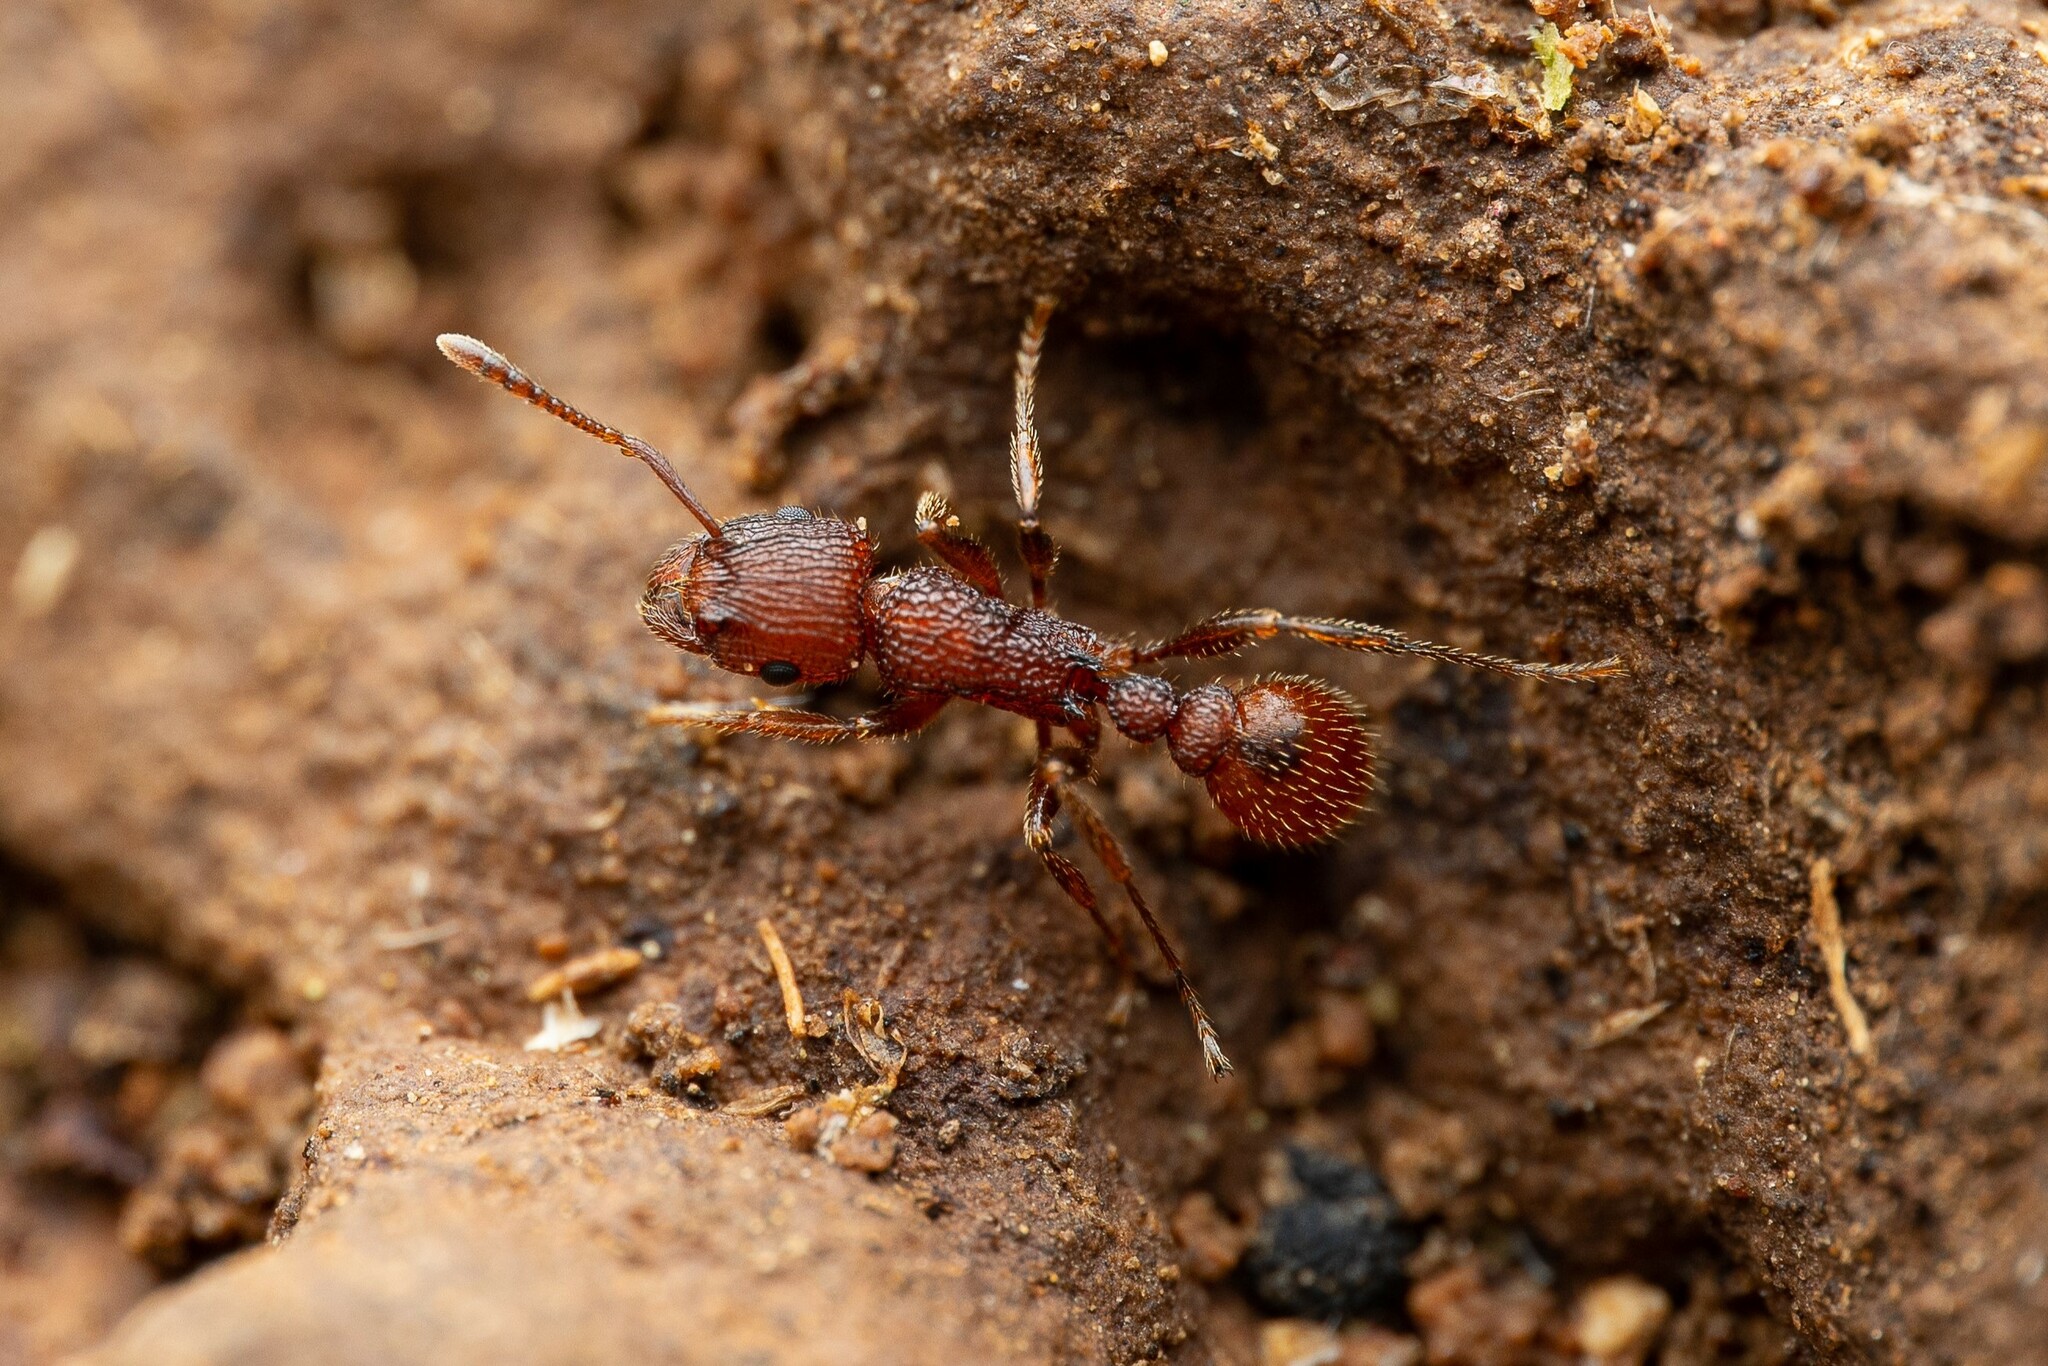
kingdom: Animalia
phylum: Arthropoda
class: Insecta
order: Hymenoptera
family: Formicidae
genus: Tetramorium
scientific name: Tetramorium hispidum
